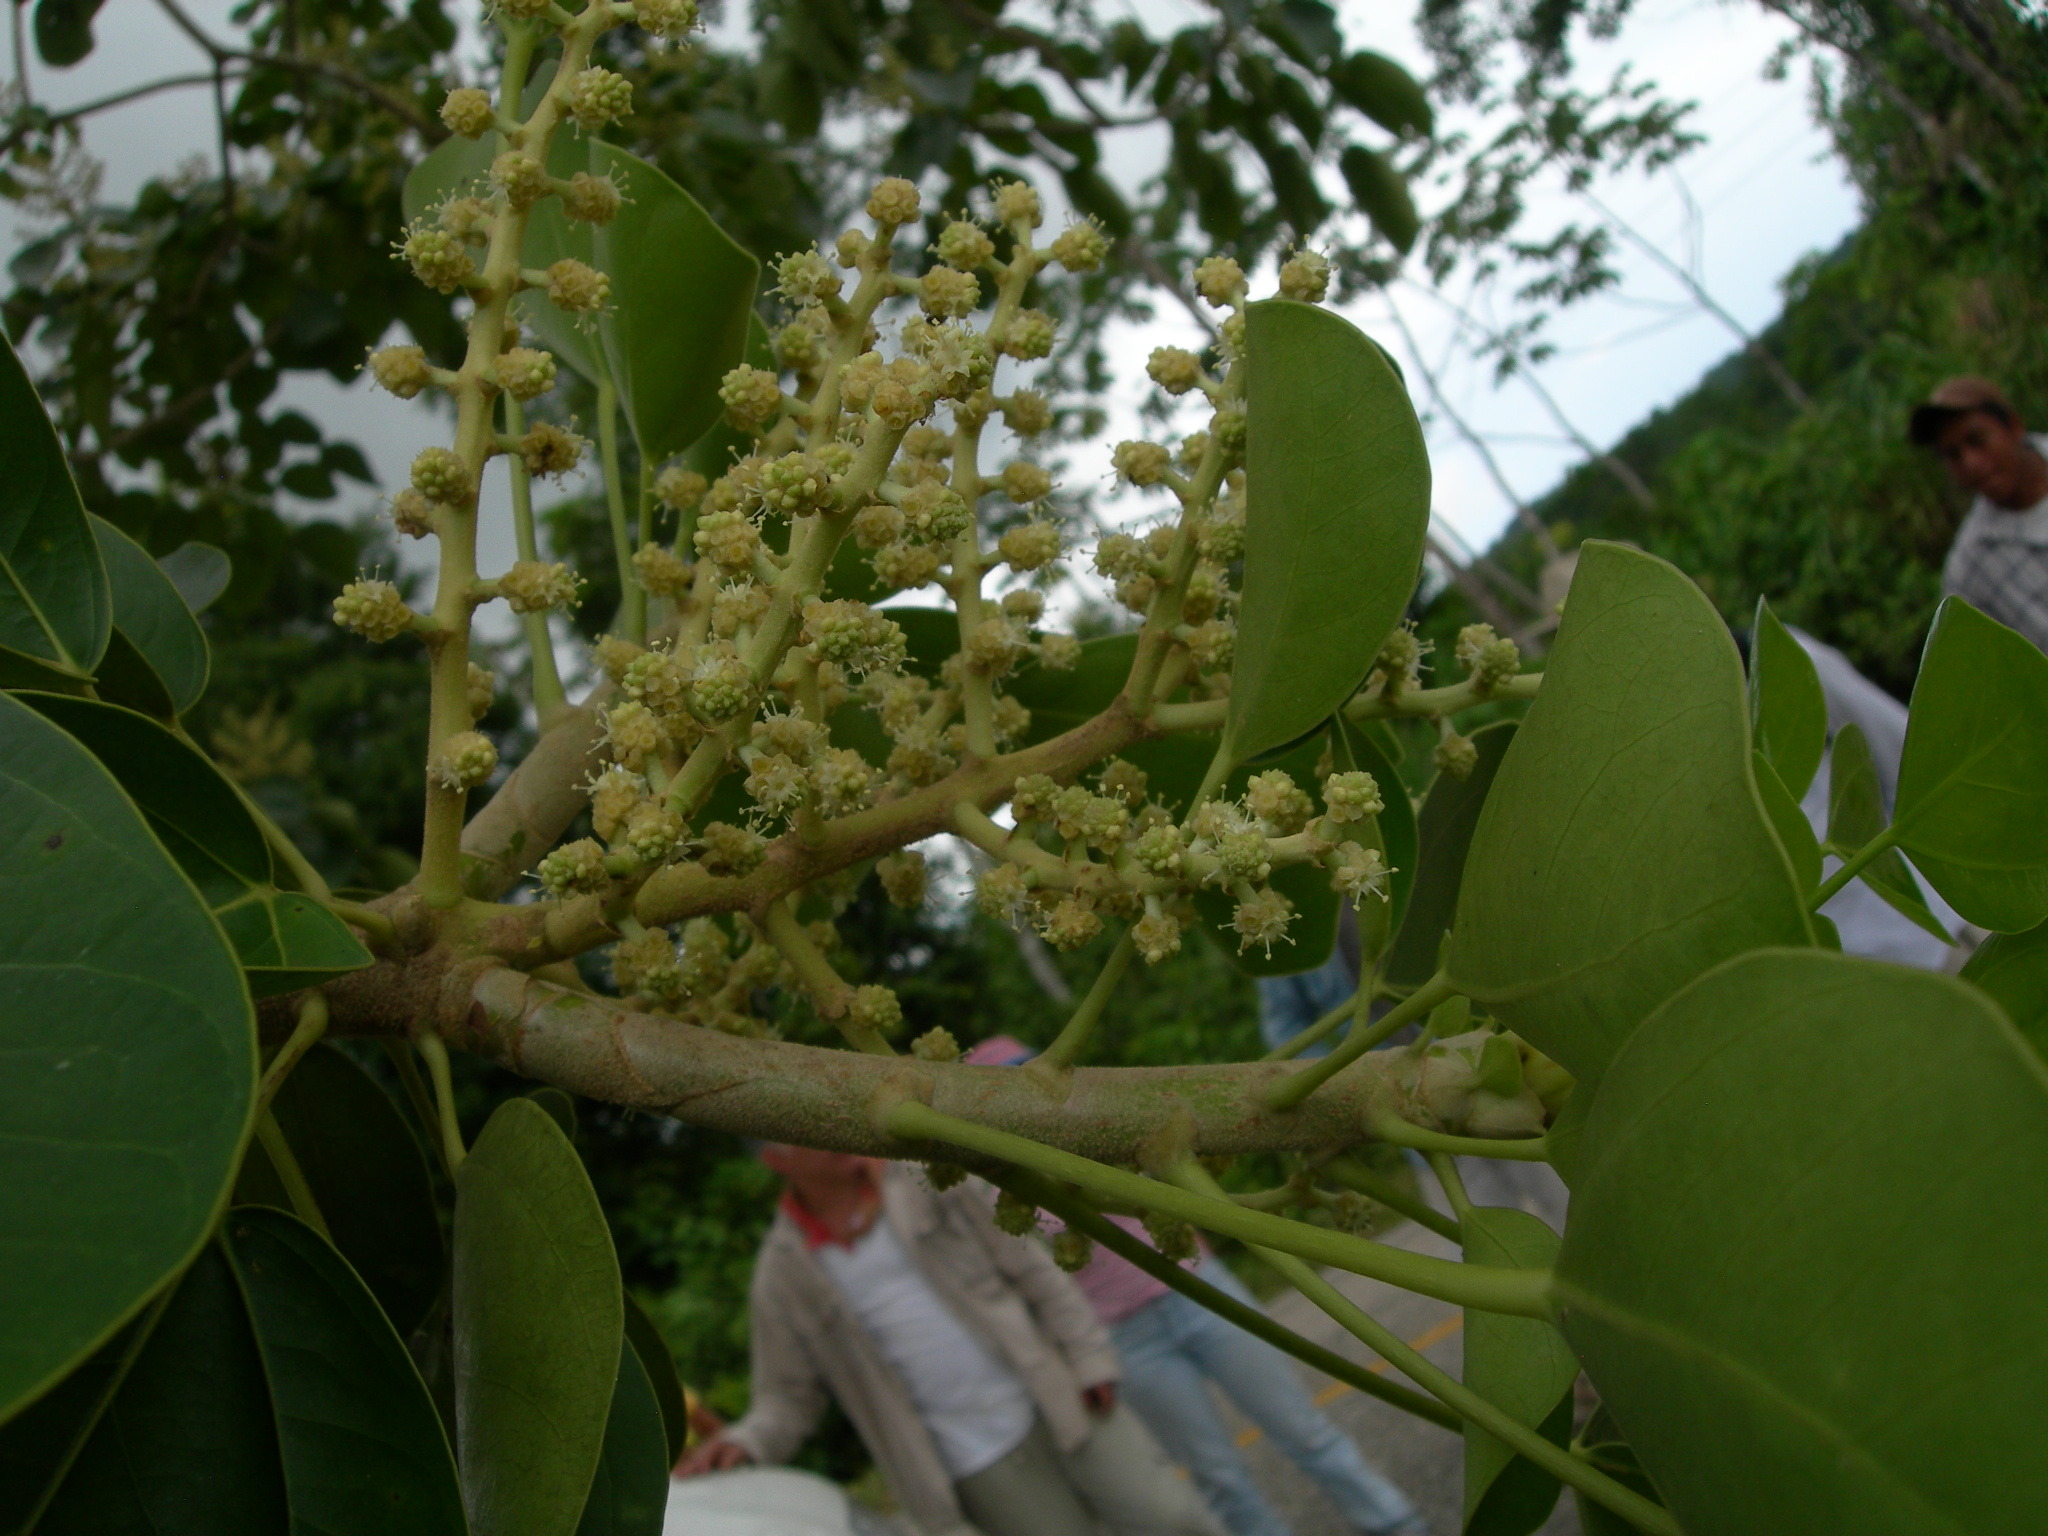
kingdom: Plantae
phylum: Tracheophyta
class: Magnoliopsida
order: Apiales
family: Araliaceae
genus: Oreopanax
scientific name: Oreopanax guatemalensis
